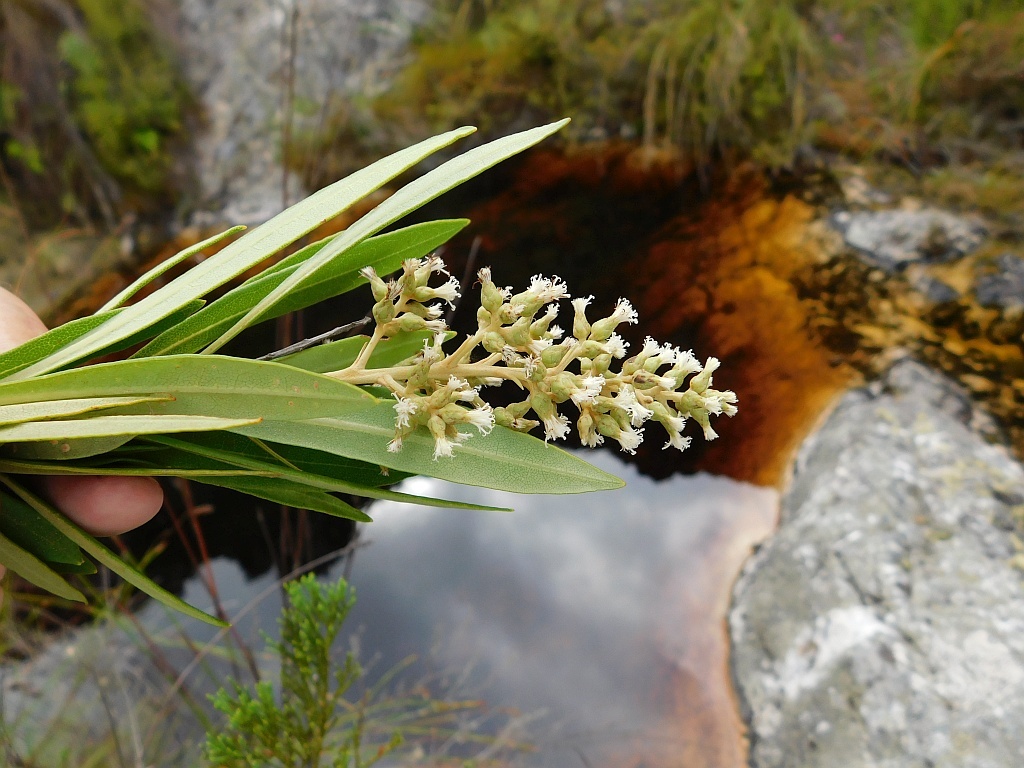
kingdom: Plantae
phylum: Tracheophyta
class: Magnoliopsida
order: Asterales
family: Asteraceae
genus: Brachylaena
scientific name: Brachylaena neriifolia
